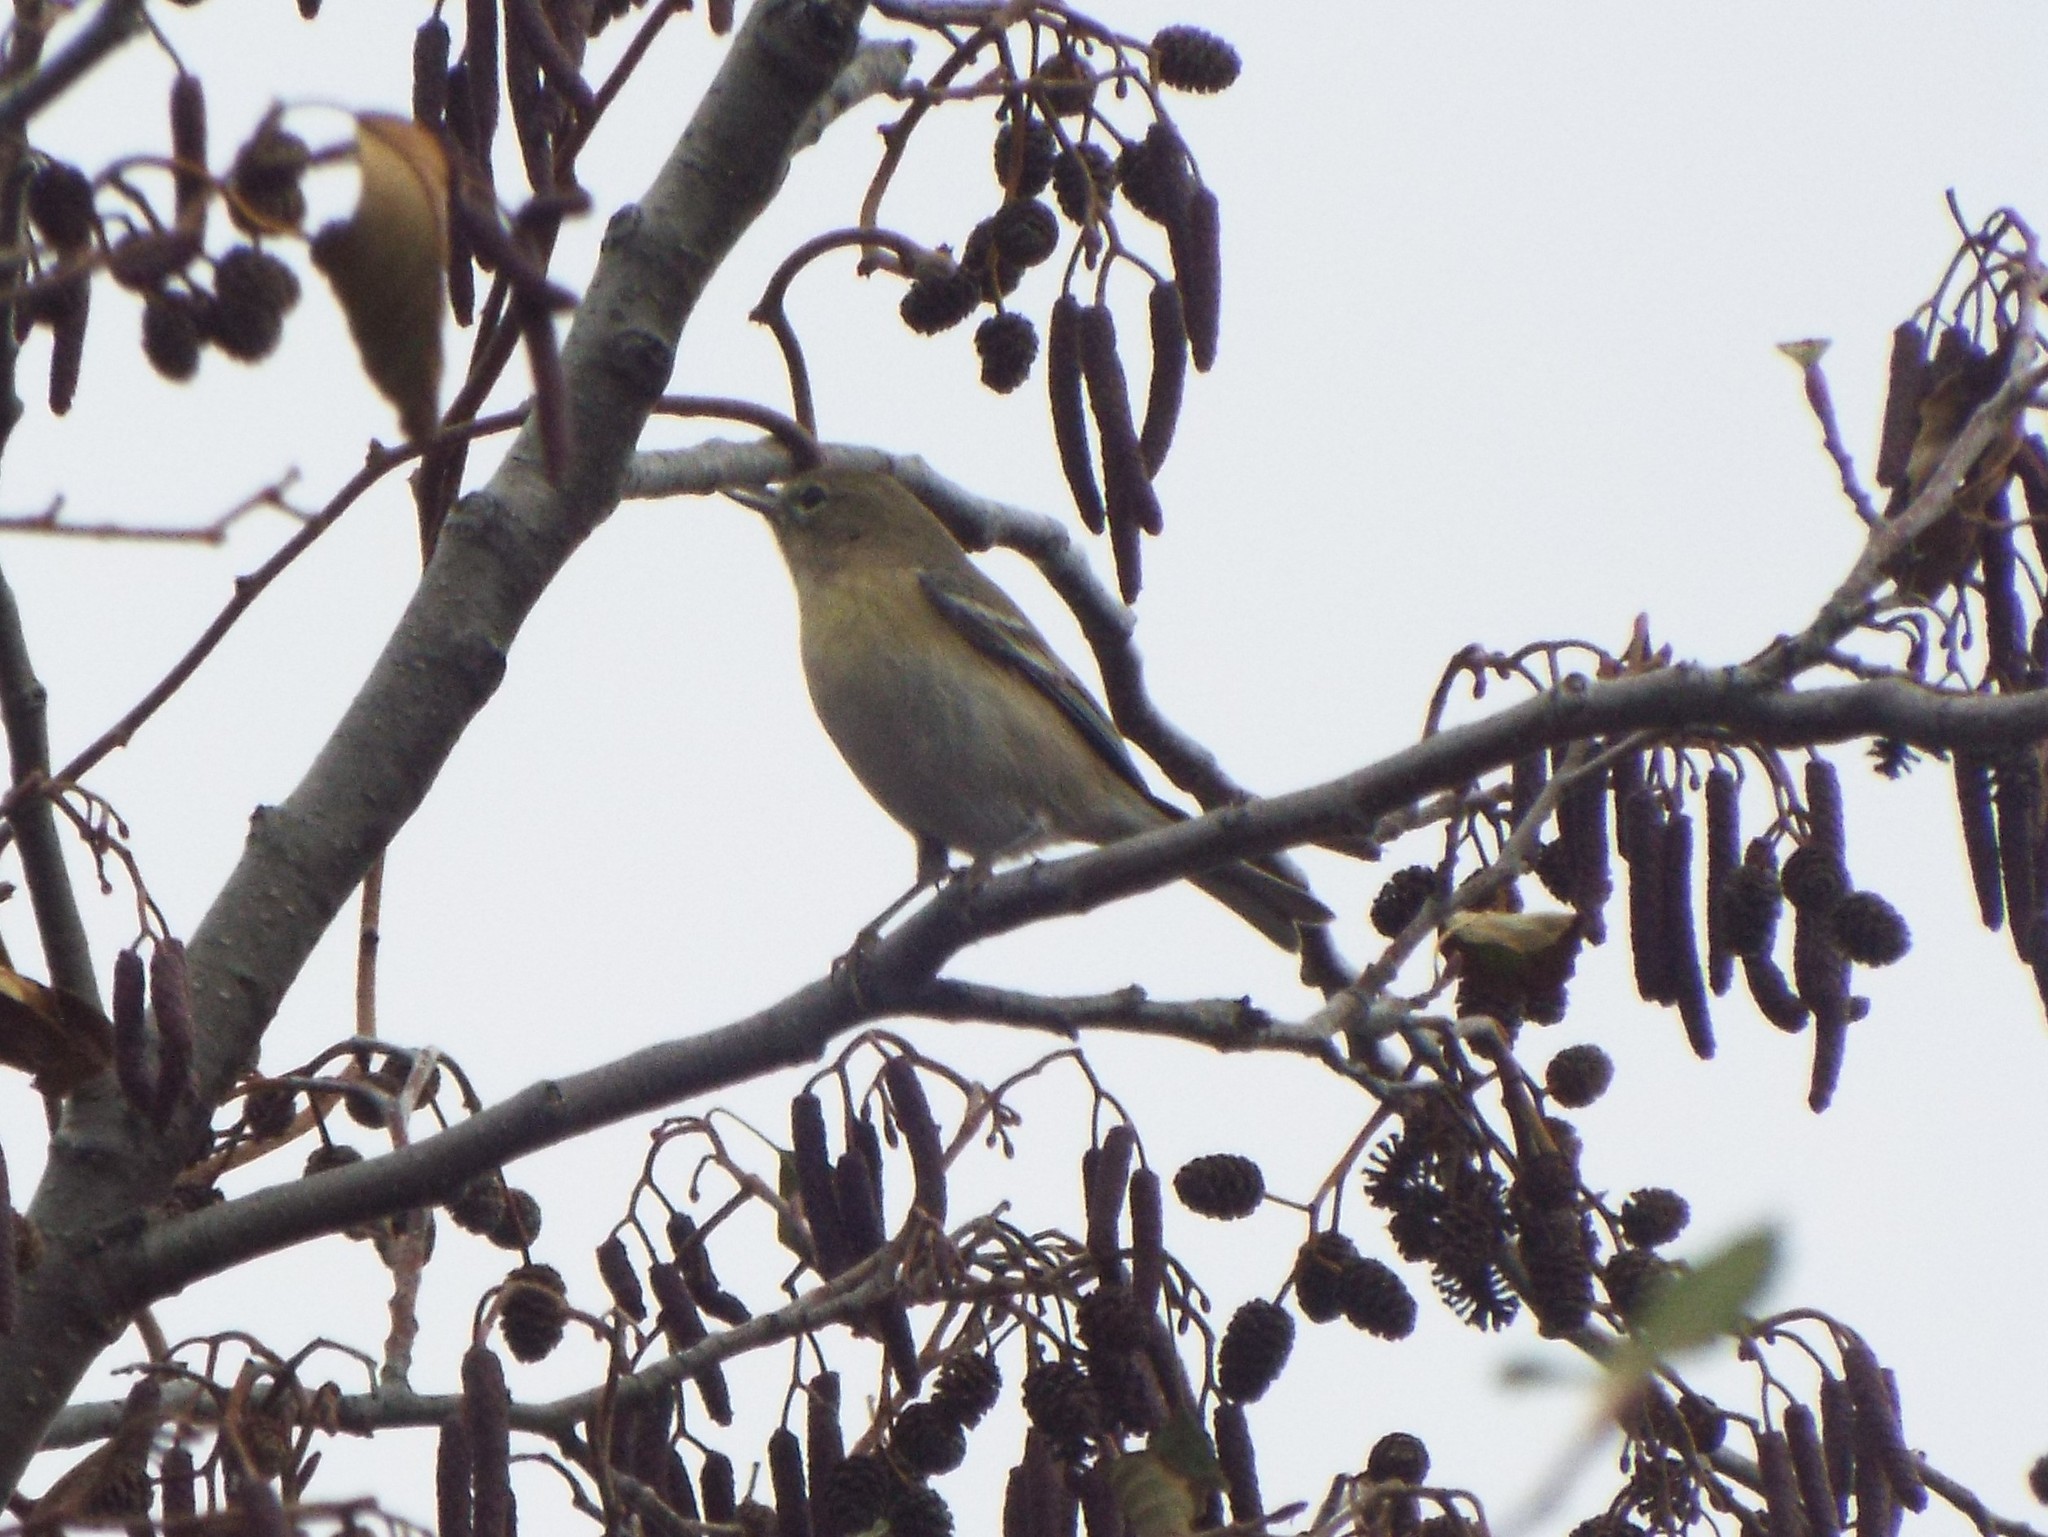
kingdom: Animalia
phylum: Chordata
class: Aves
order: Passeriformes
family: Parulidae
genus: Setophaga
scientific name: Setophaga pinus
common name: Pine warbler
